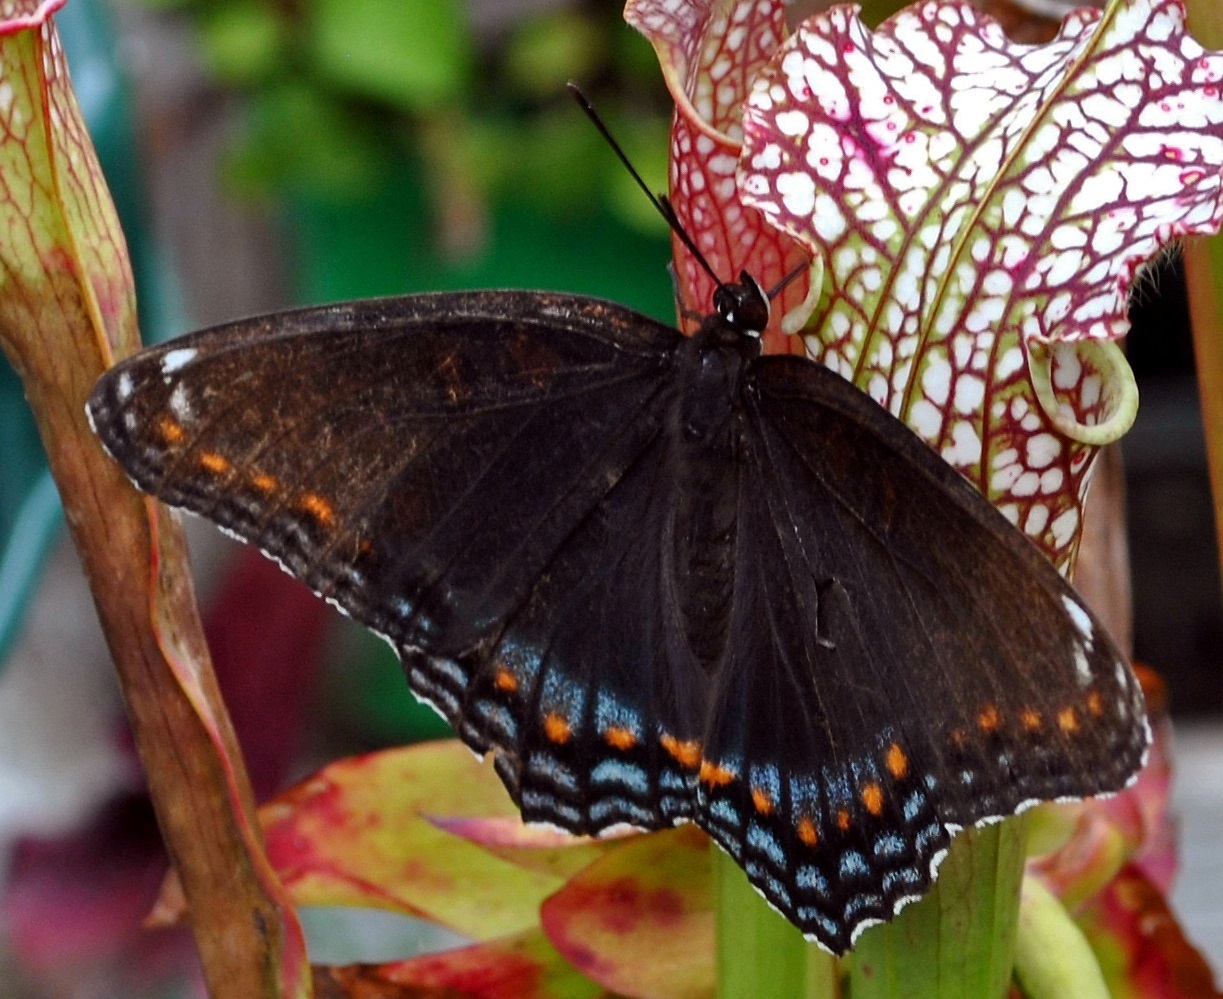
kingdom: Animalia
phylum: Arthropoda
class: Insecta
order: Lepidoptera
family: Nymphalidae
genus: Limenitis
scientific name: Limenitis arthemis
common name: Red-spotted admiral
